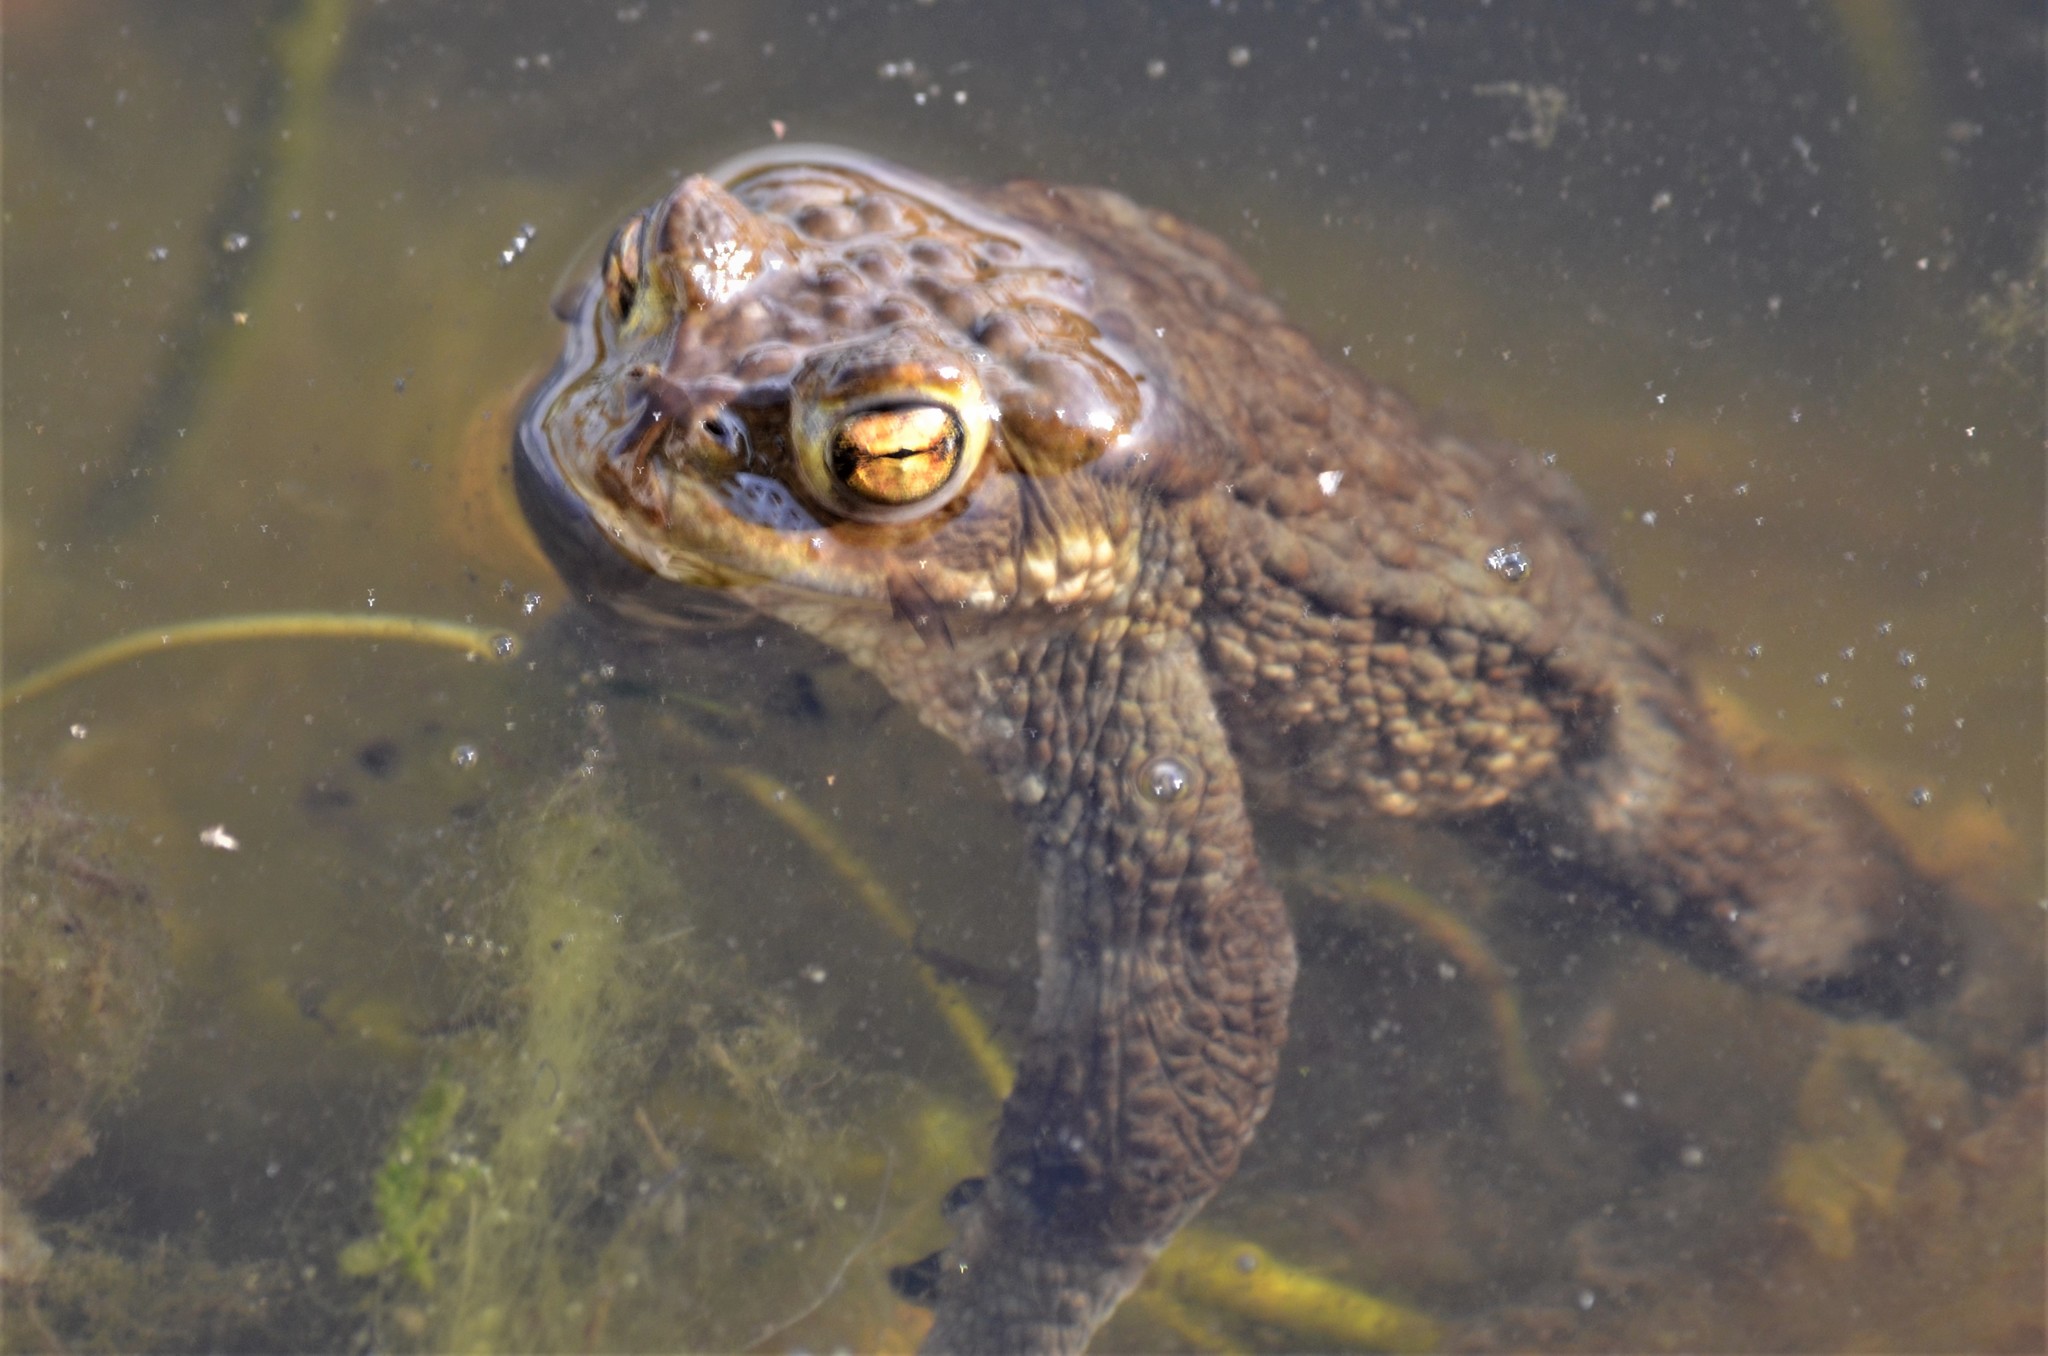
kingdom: Animalia
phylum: Chordata
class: Amphibia
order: Anura
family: Bufonidae
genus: Bufo
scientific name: Bufo bufo
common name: Common toad
